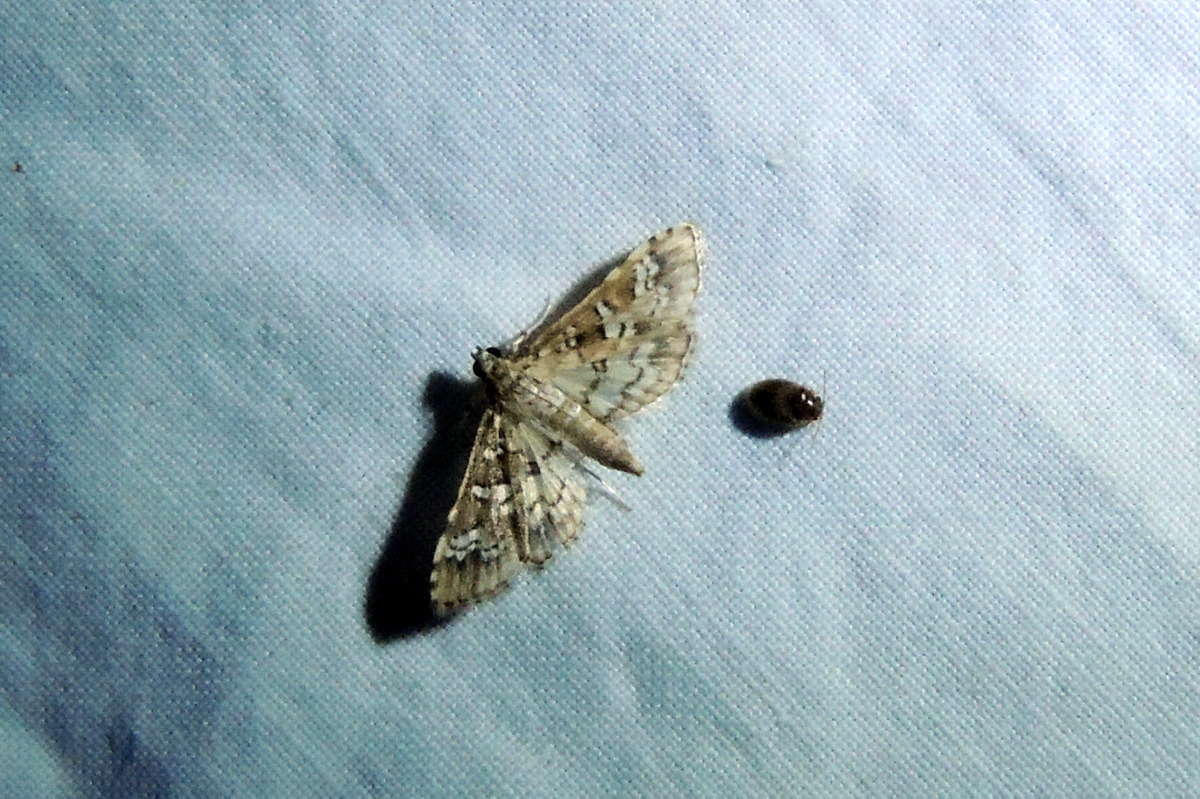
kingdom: Animalia
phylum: Arthropoda
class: Insecta
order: Lepidoptera
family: Crambidae
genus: Samea
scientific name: Samea multiplicalis
